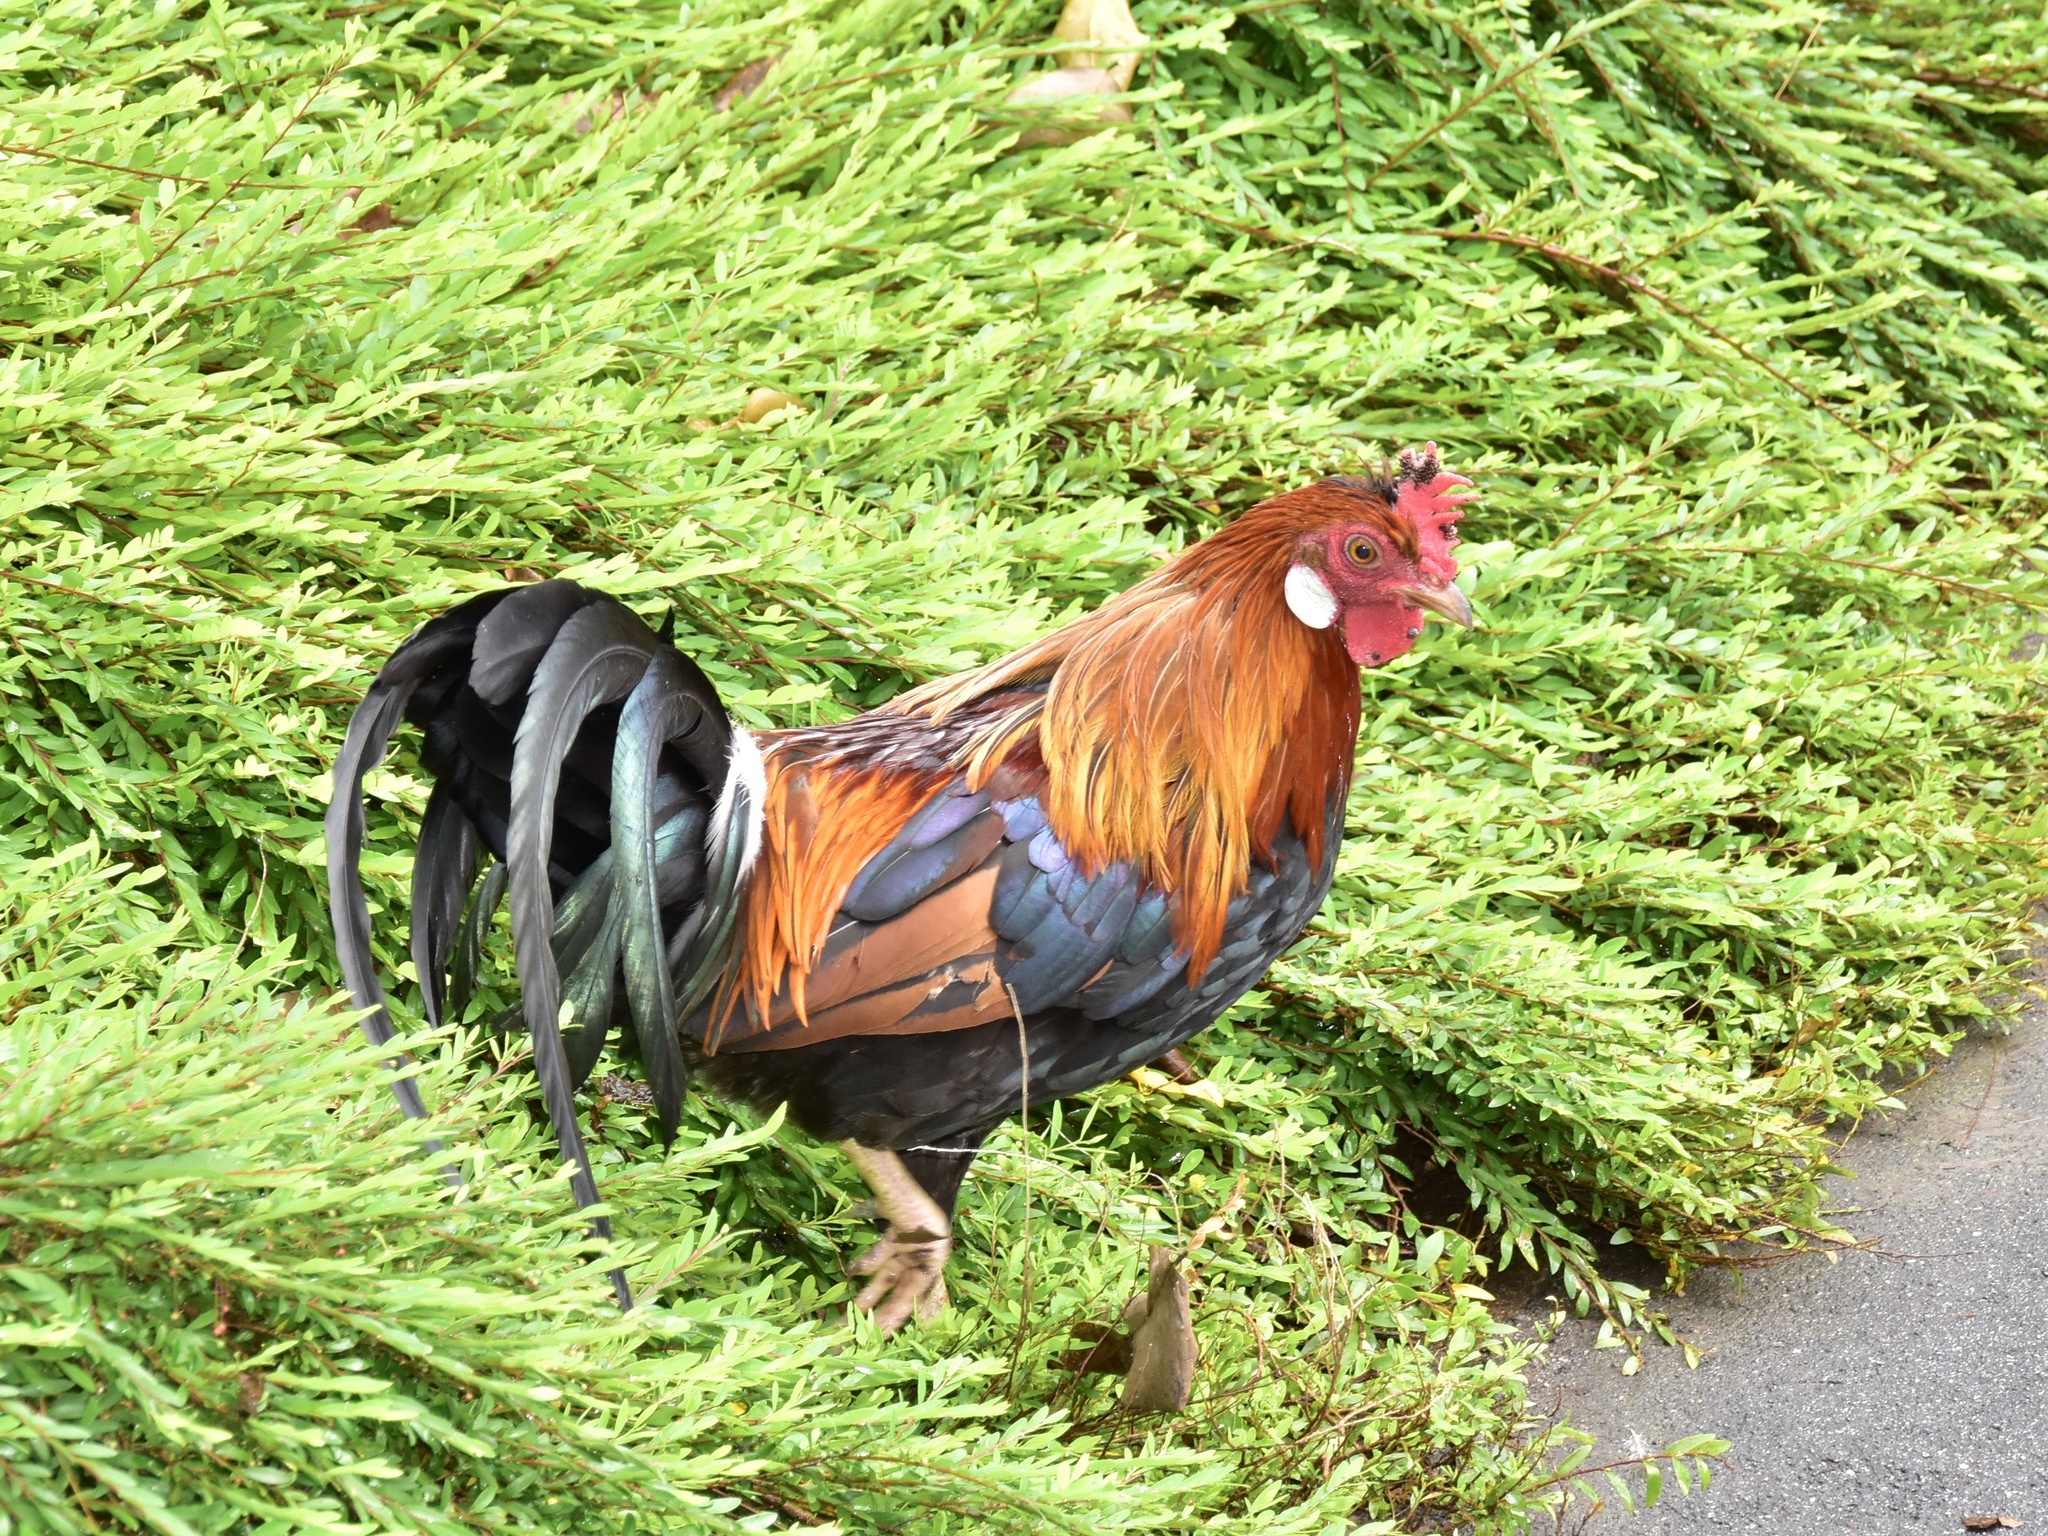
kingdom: Animalia
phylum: Chordata
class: Aves
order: Galliformes
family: Phasianidae
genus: Gallus
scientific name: Gallus gallus
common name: Red junglefowl
